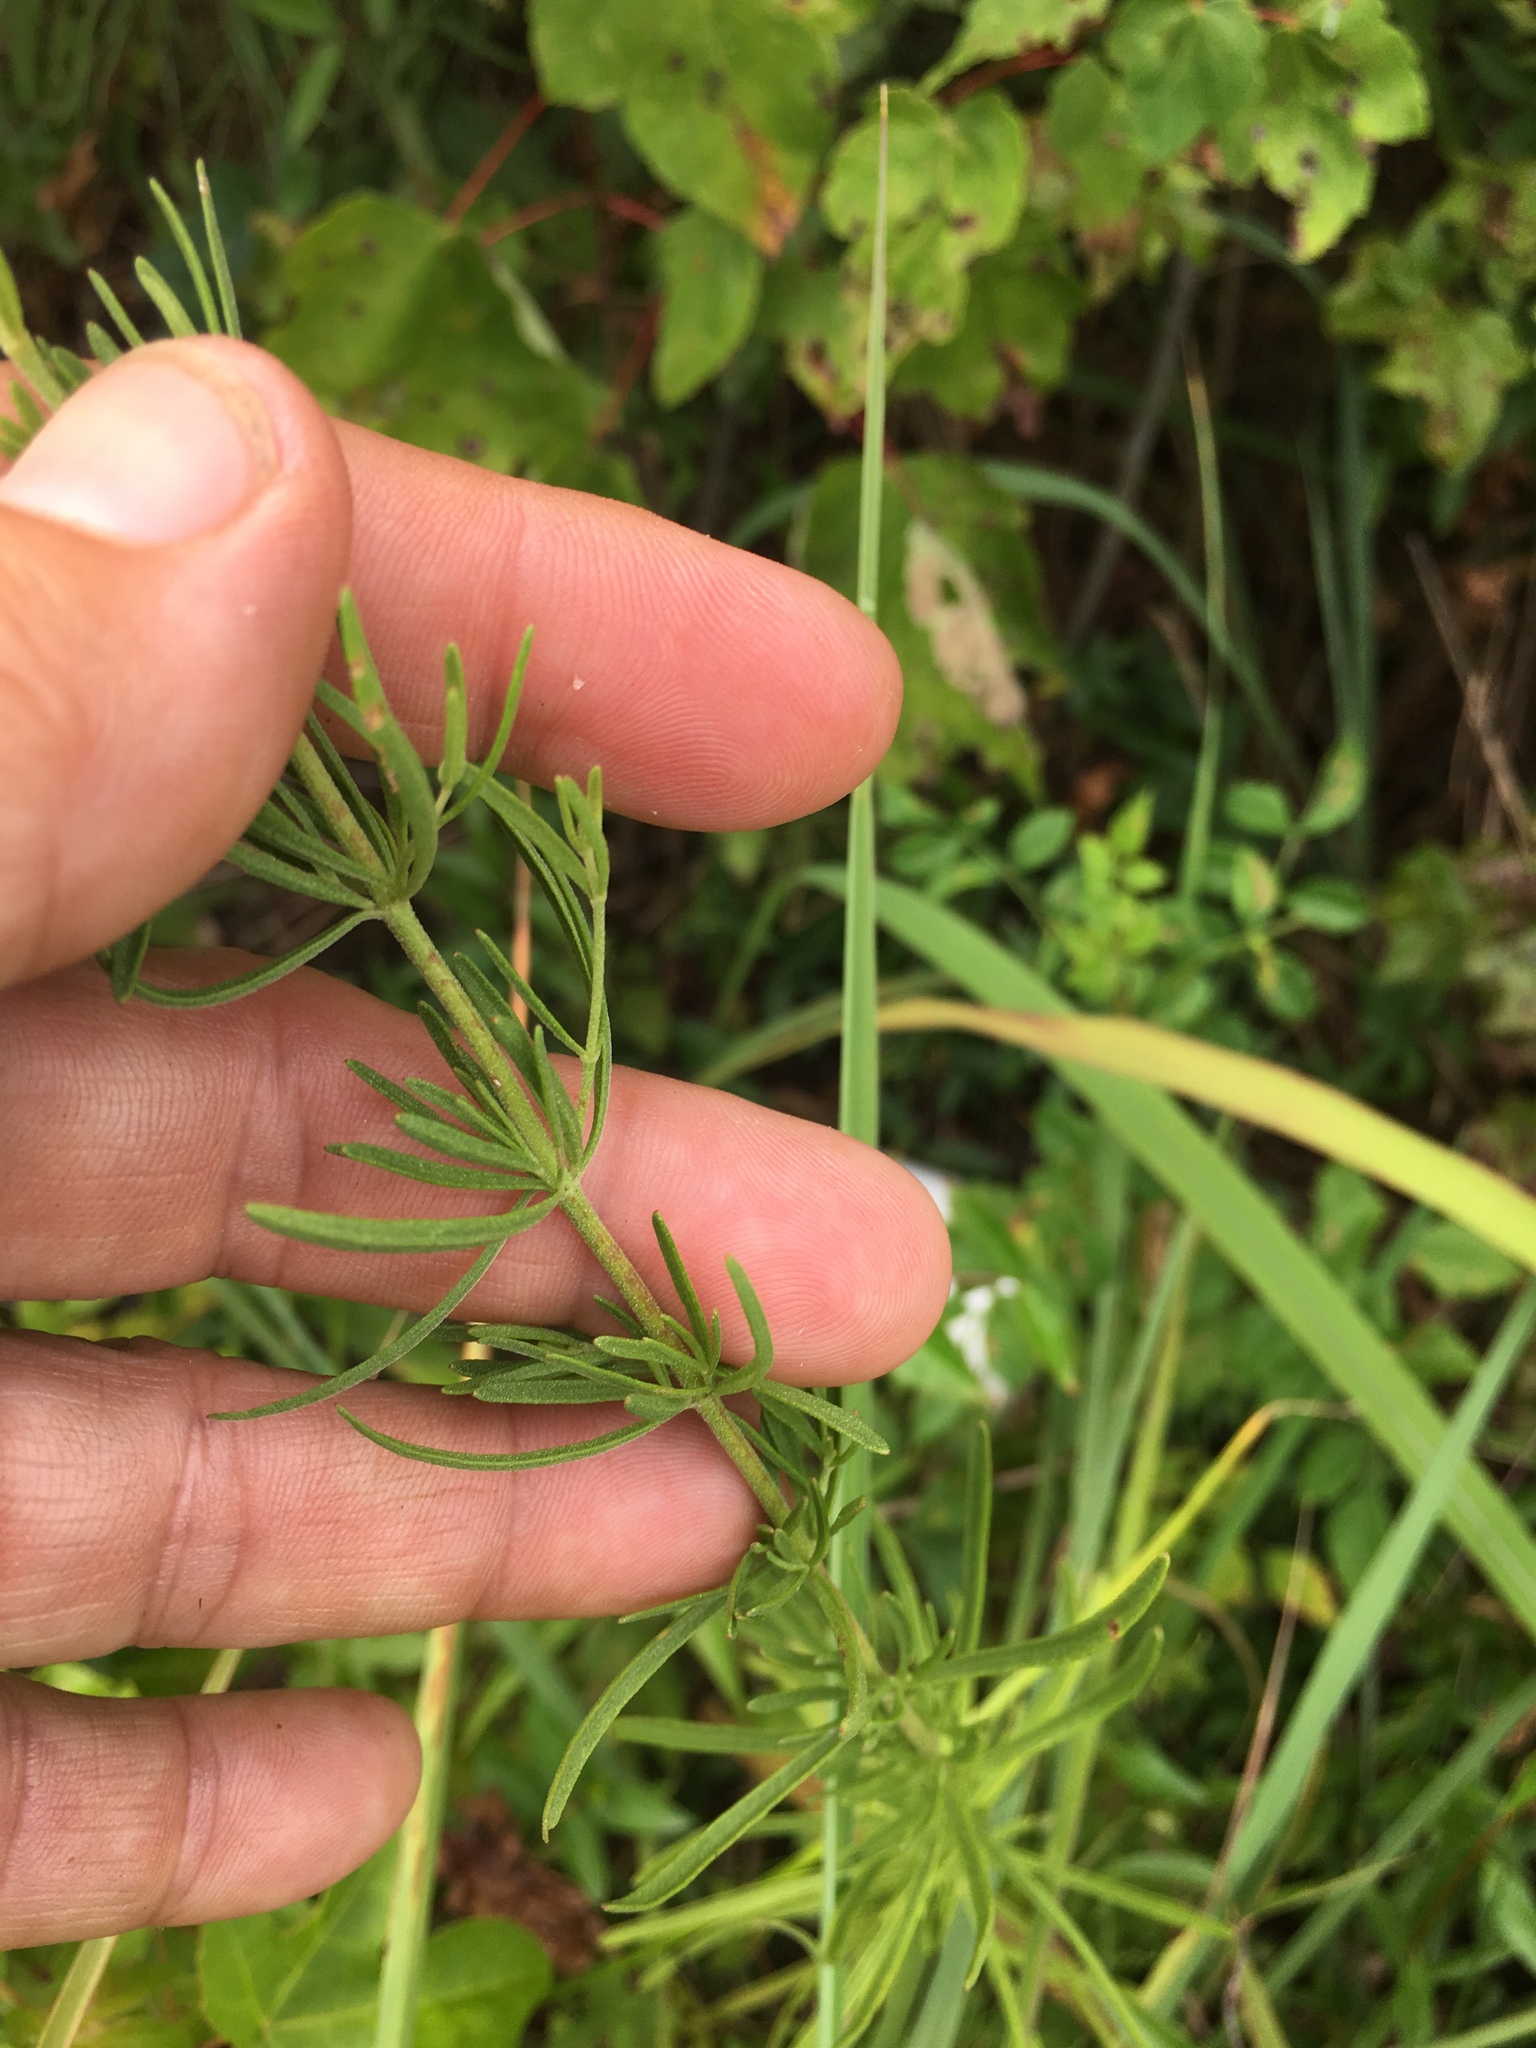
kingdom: Plantae
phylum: Tracheophyta
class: Magnoliopsida
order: Asterales
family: Asteraceae
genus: Eupatorium
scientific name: Eupatorium hyssopifolium
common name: Hyssop-leaf thoroughwort
